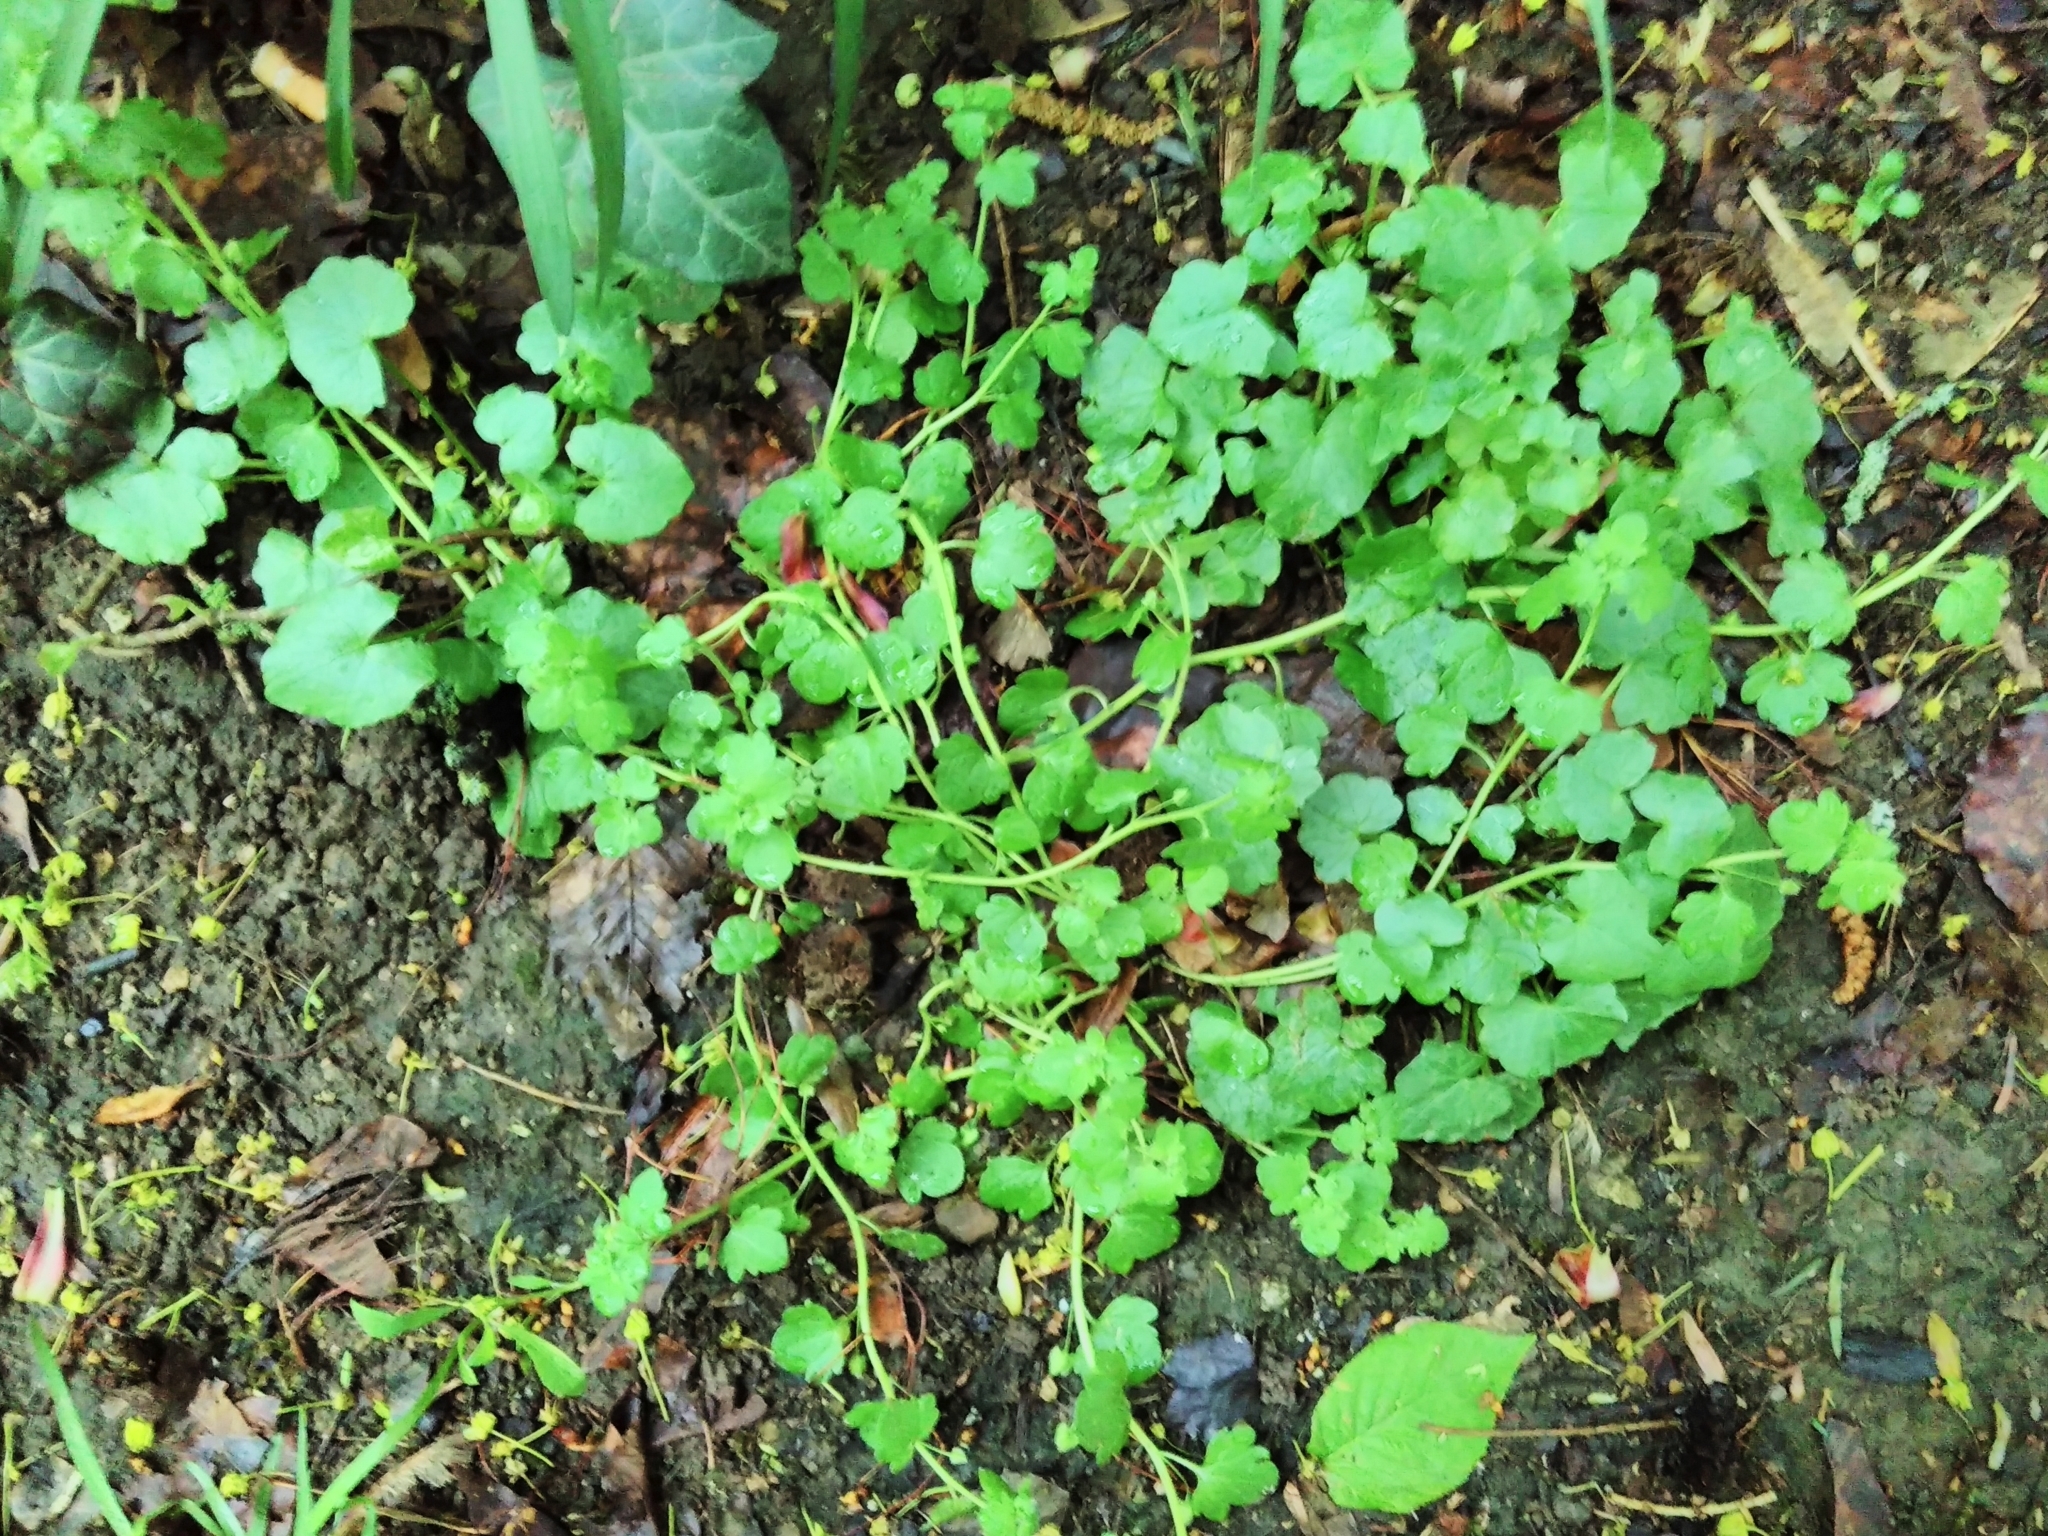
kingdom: Plantae
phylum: Tracheophyta
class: Magnoliopsida
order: Lamiales
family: Plantaginaceae
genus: Veronica
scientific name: Veronica hederifolia
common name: Ivy-leaved speedwell
